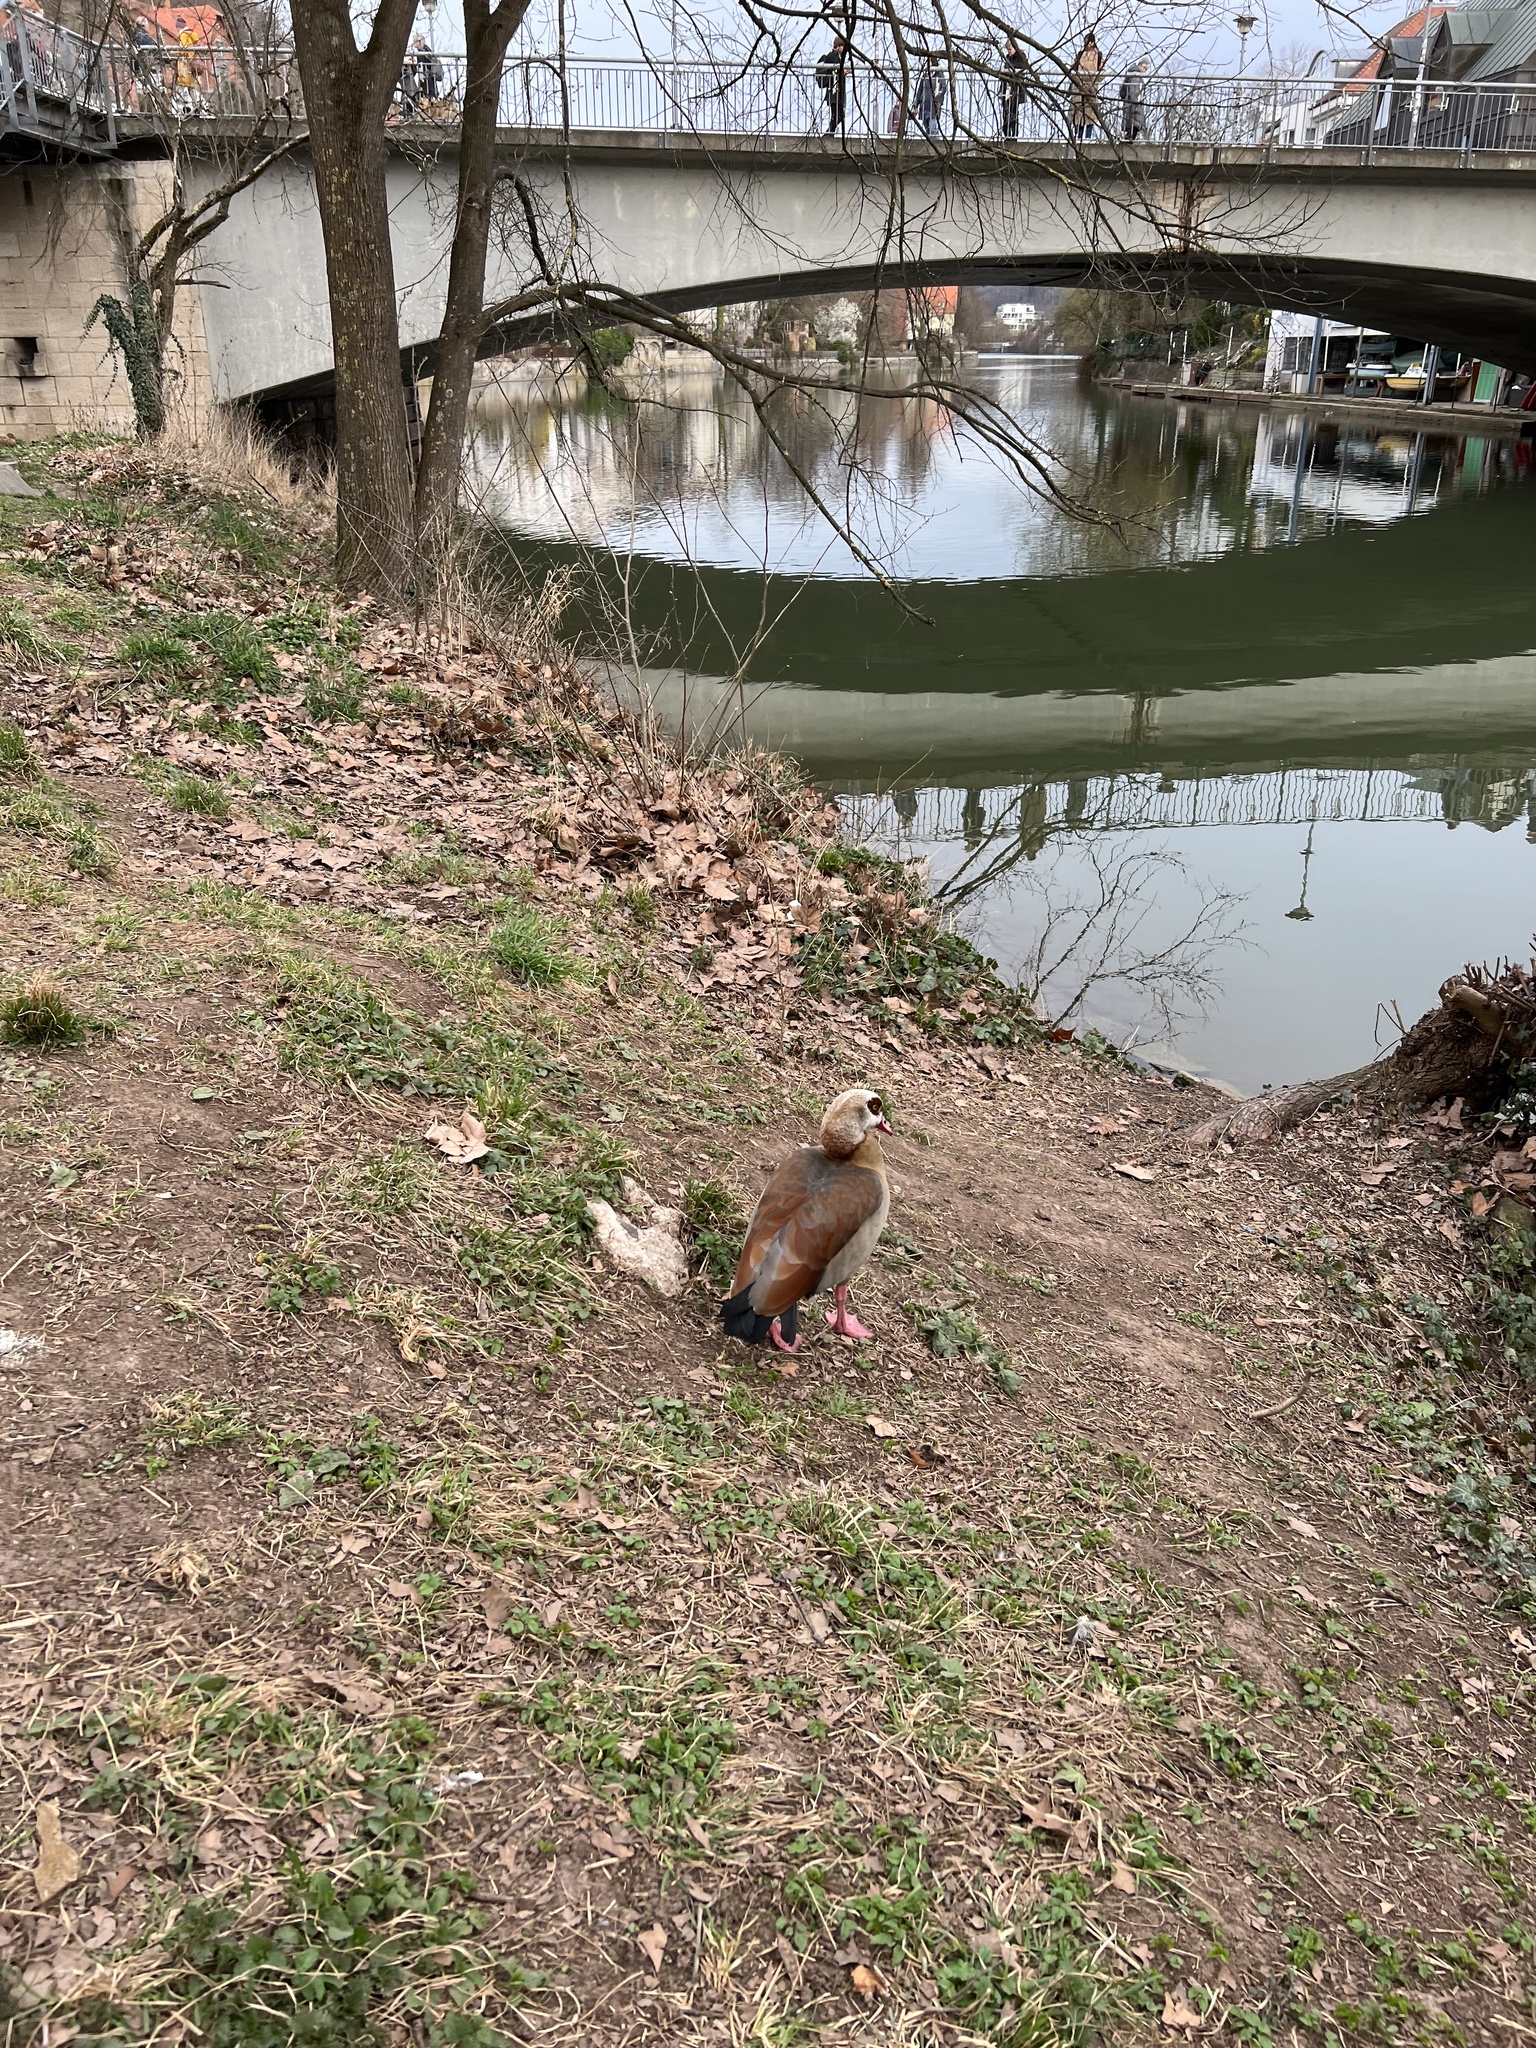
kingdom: Animalia
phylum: Chordata
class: Aves
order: Anseriformes
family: Anatidae
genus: Alopochen
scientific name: Alopochen aegyptiaca
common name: Egyptian goose
